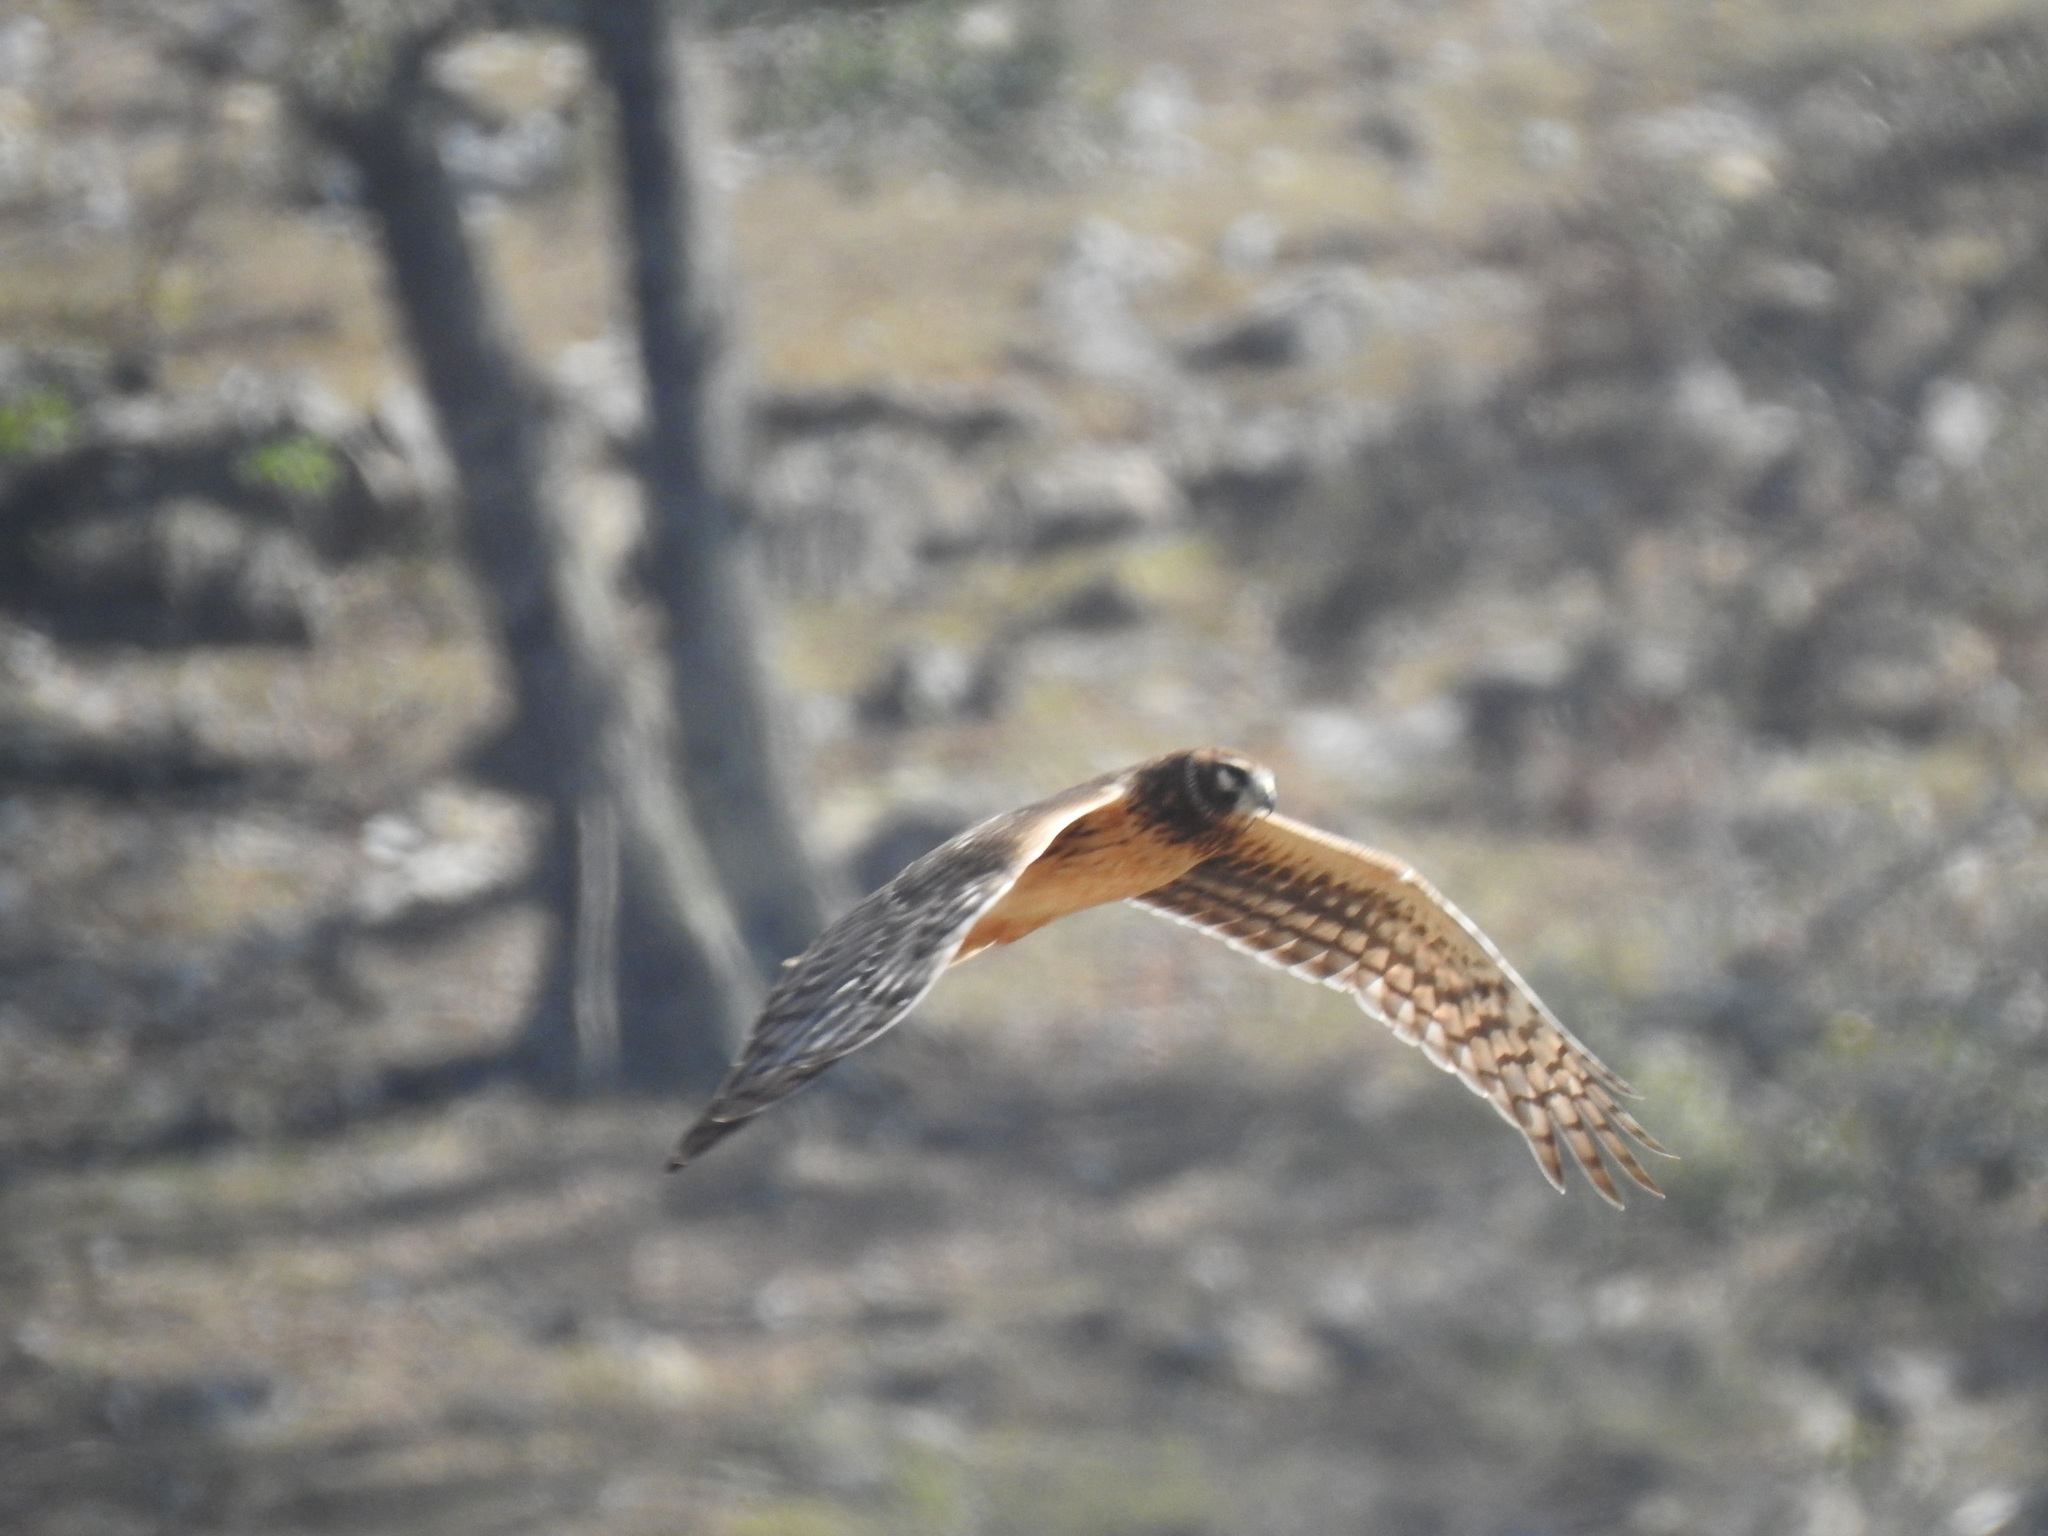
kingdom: Animalia
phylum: Chordata
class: Aves
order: Accipitriformes
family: Accipitridae
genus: Circus
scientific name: Circus cyaneus
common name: Hen harrier
